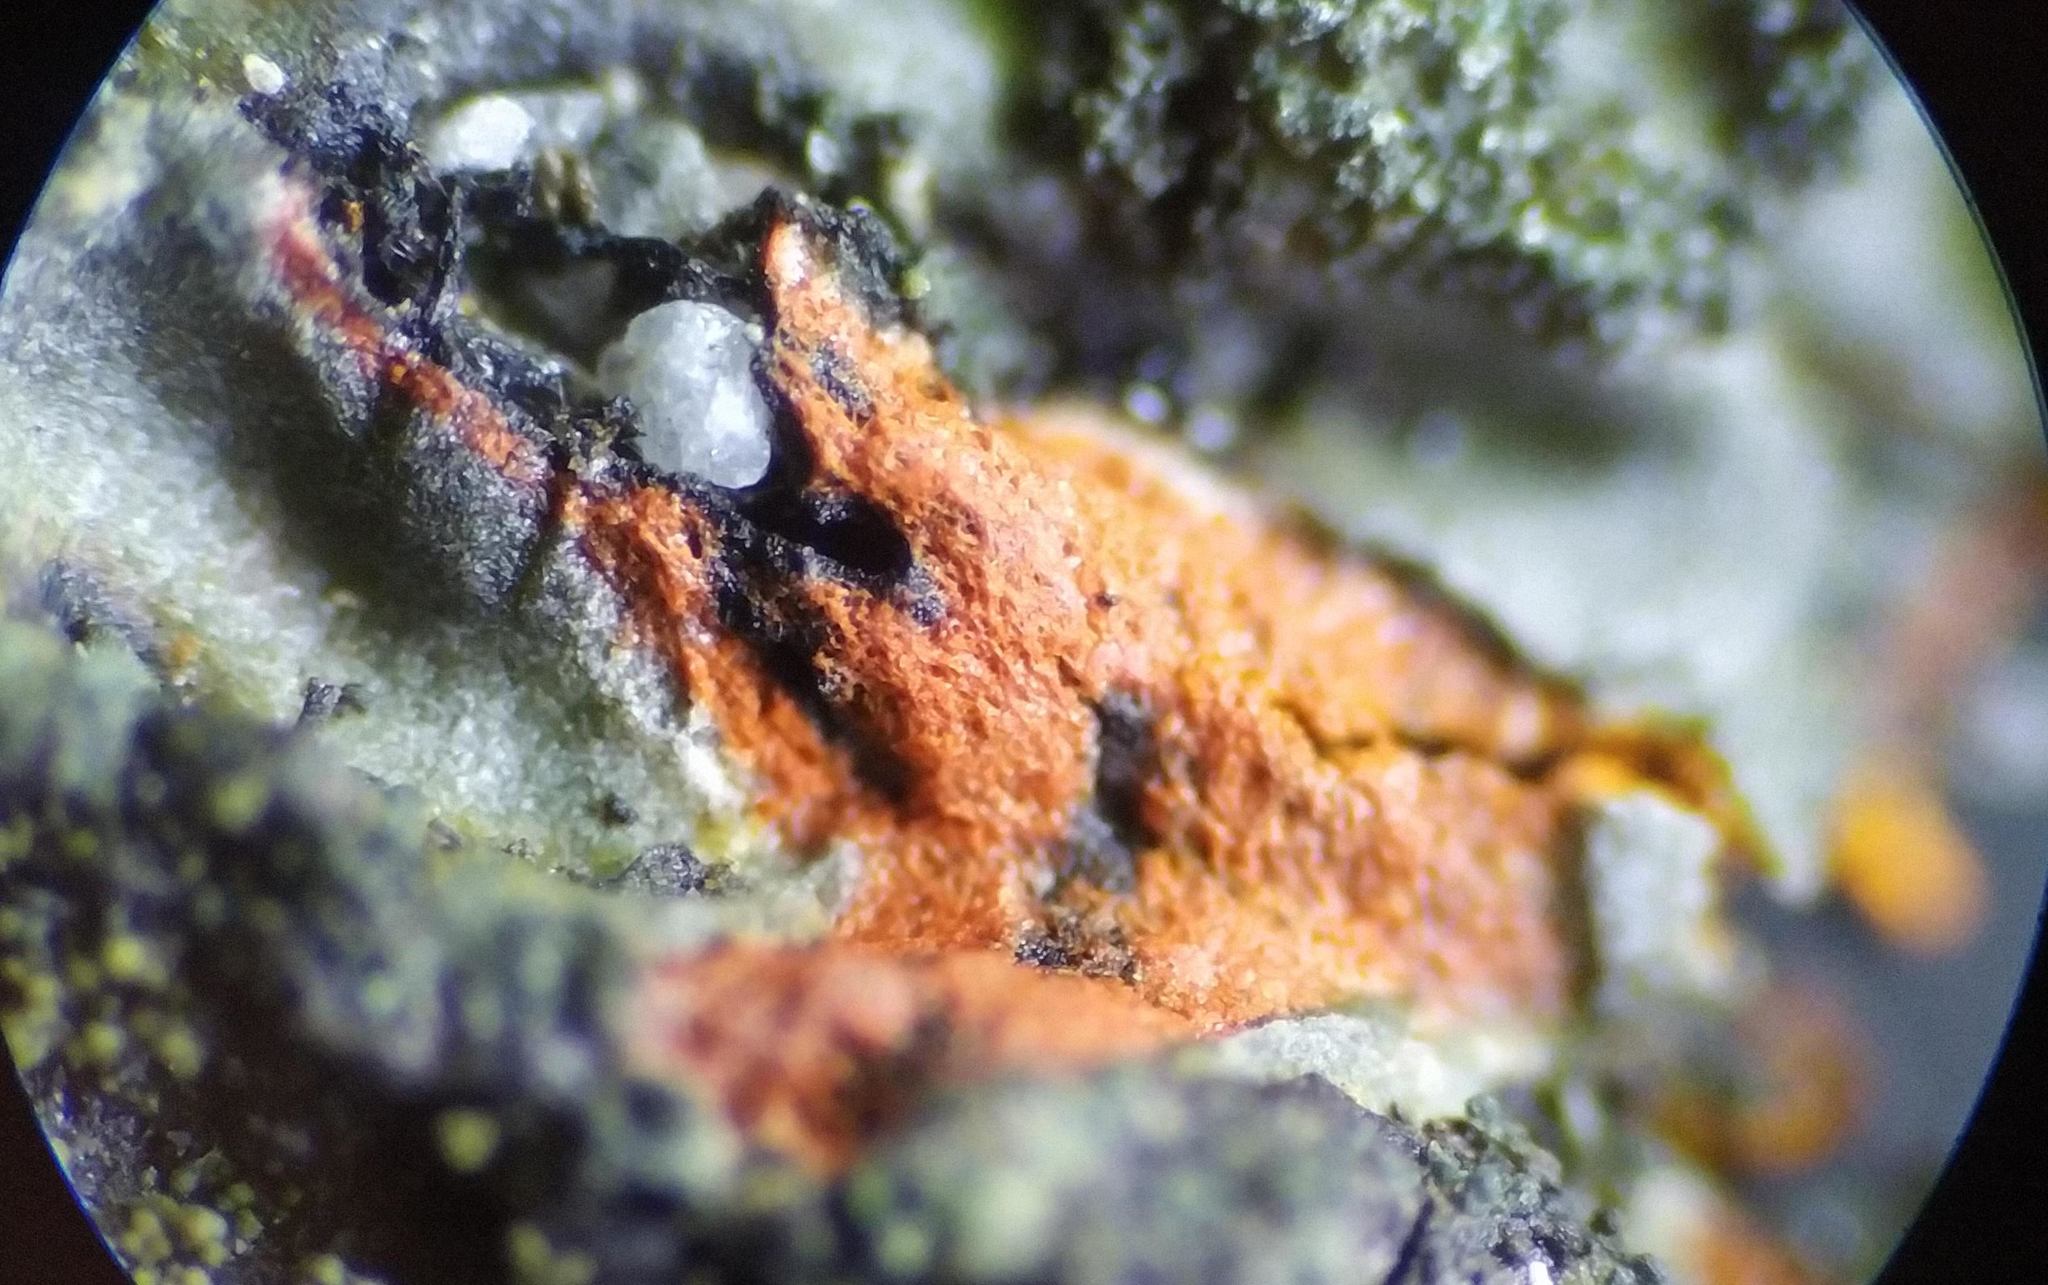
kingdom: Fungi
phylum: Ascomycota
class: Lecanoromycetes
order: Caliciales
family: Physciaceae
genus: Phaeophyscia
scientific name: Phaeophyscia rubropulchra
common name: Orange-cored shadow lichen
